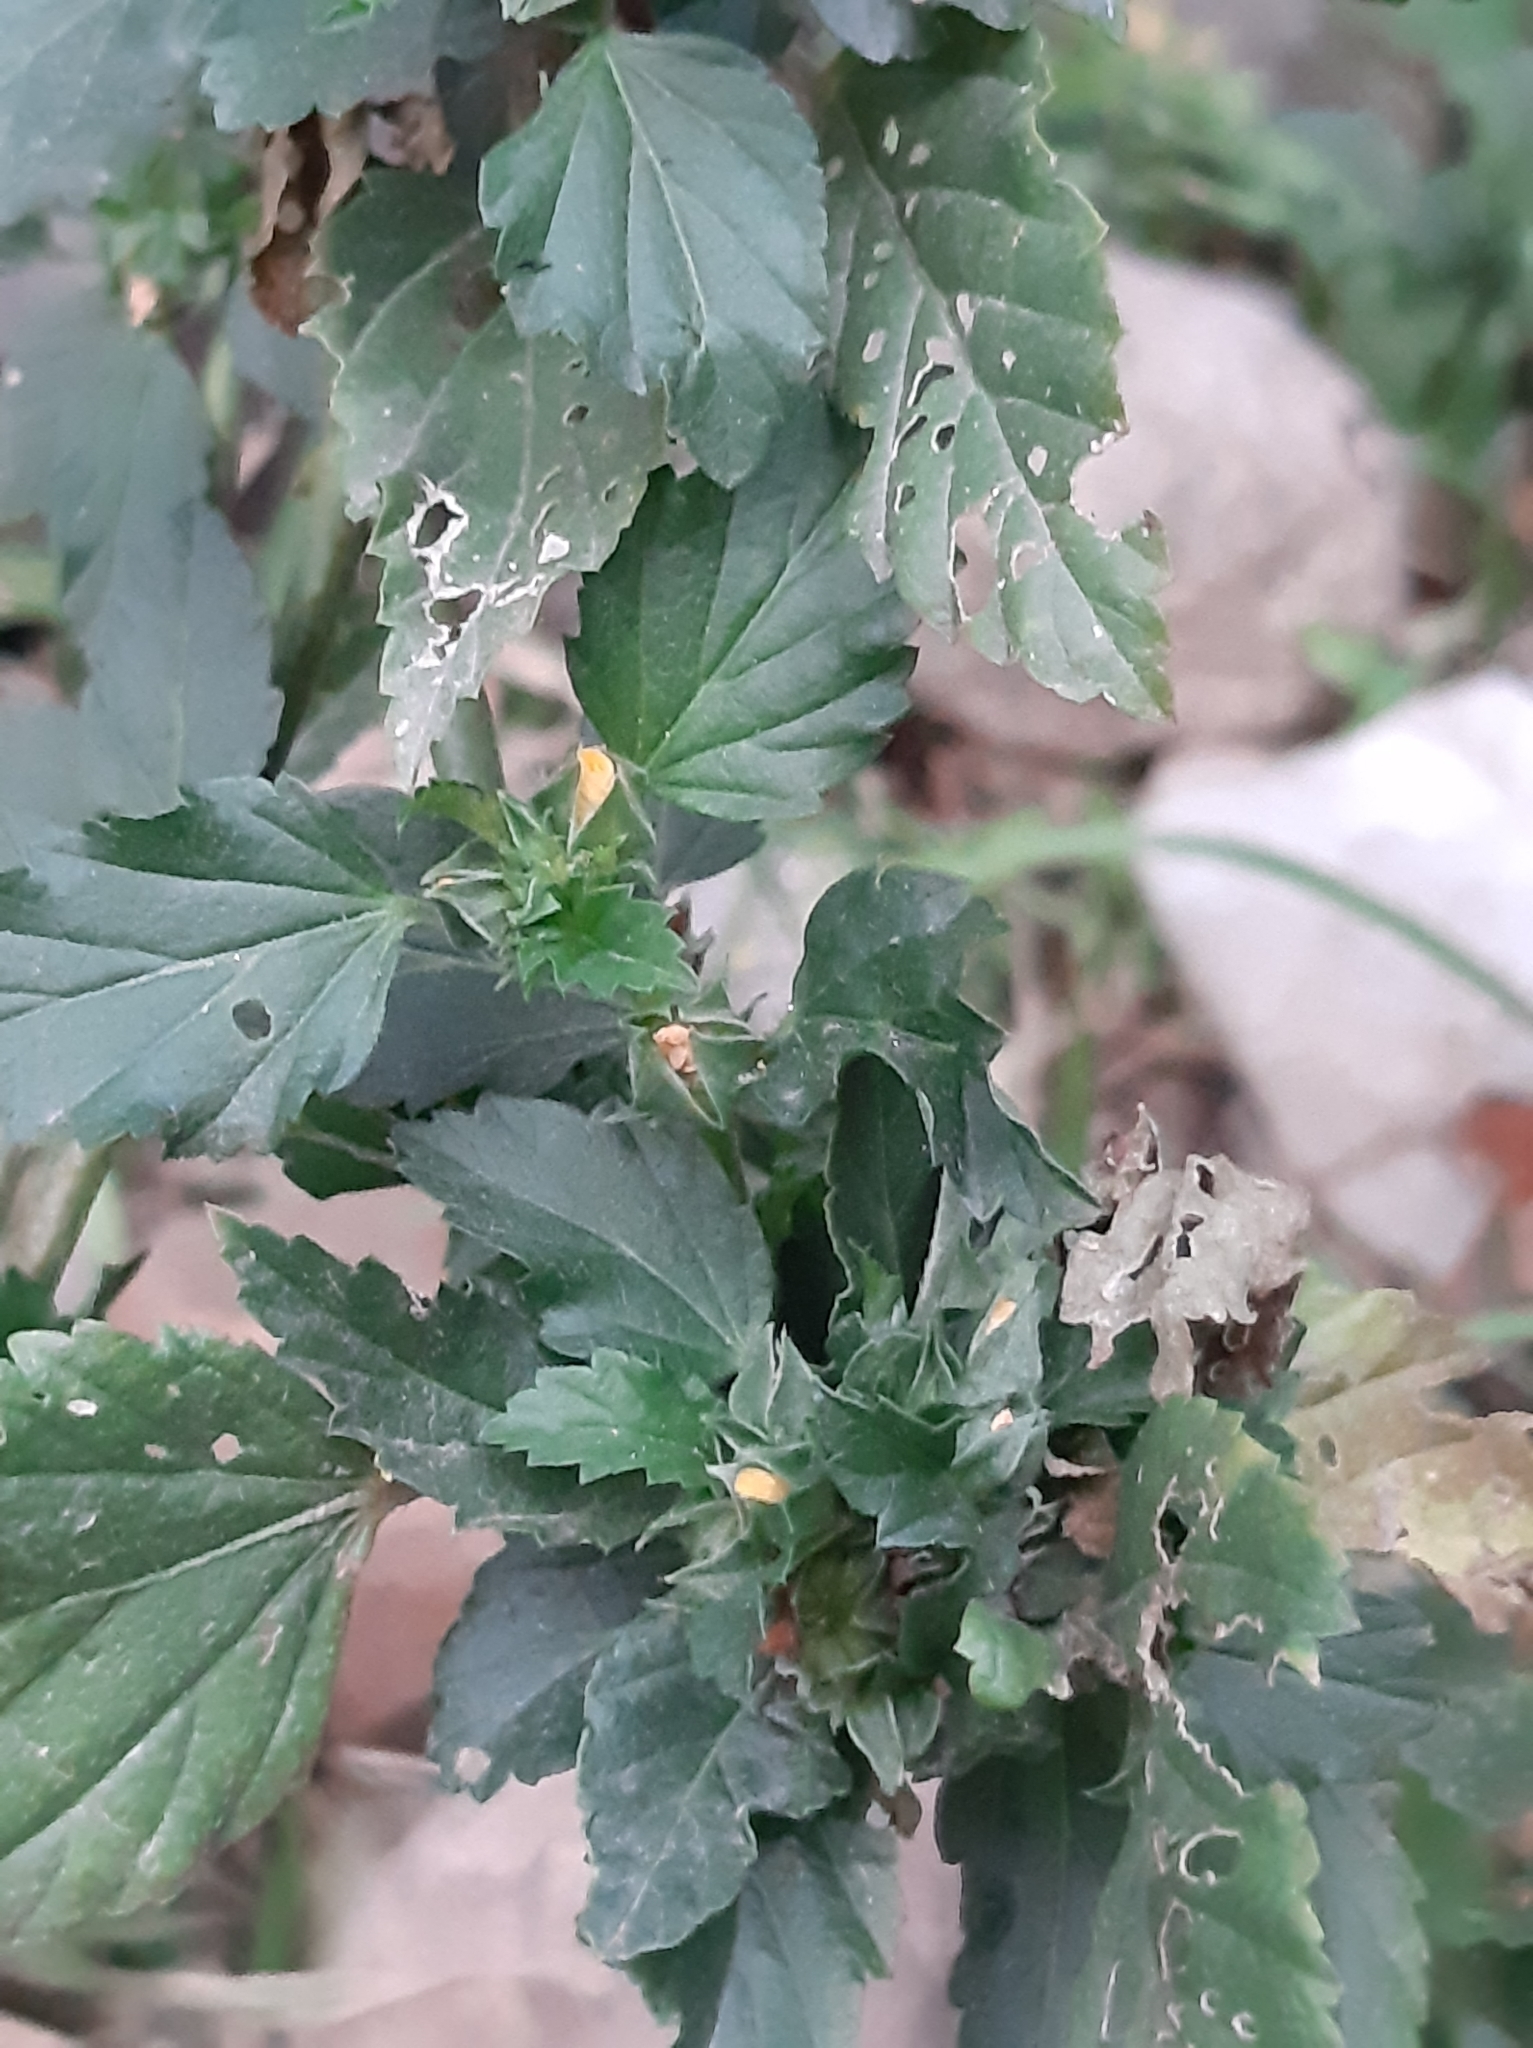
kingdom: Plantae
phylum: Tracheophyta
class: Magnoliopsida
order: Malvales
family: Malvaceae
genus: Malvastrum
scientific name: Malvastrum coromandelianum
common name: Threelobe false mallow
